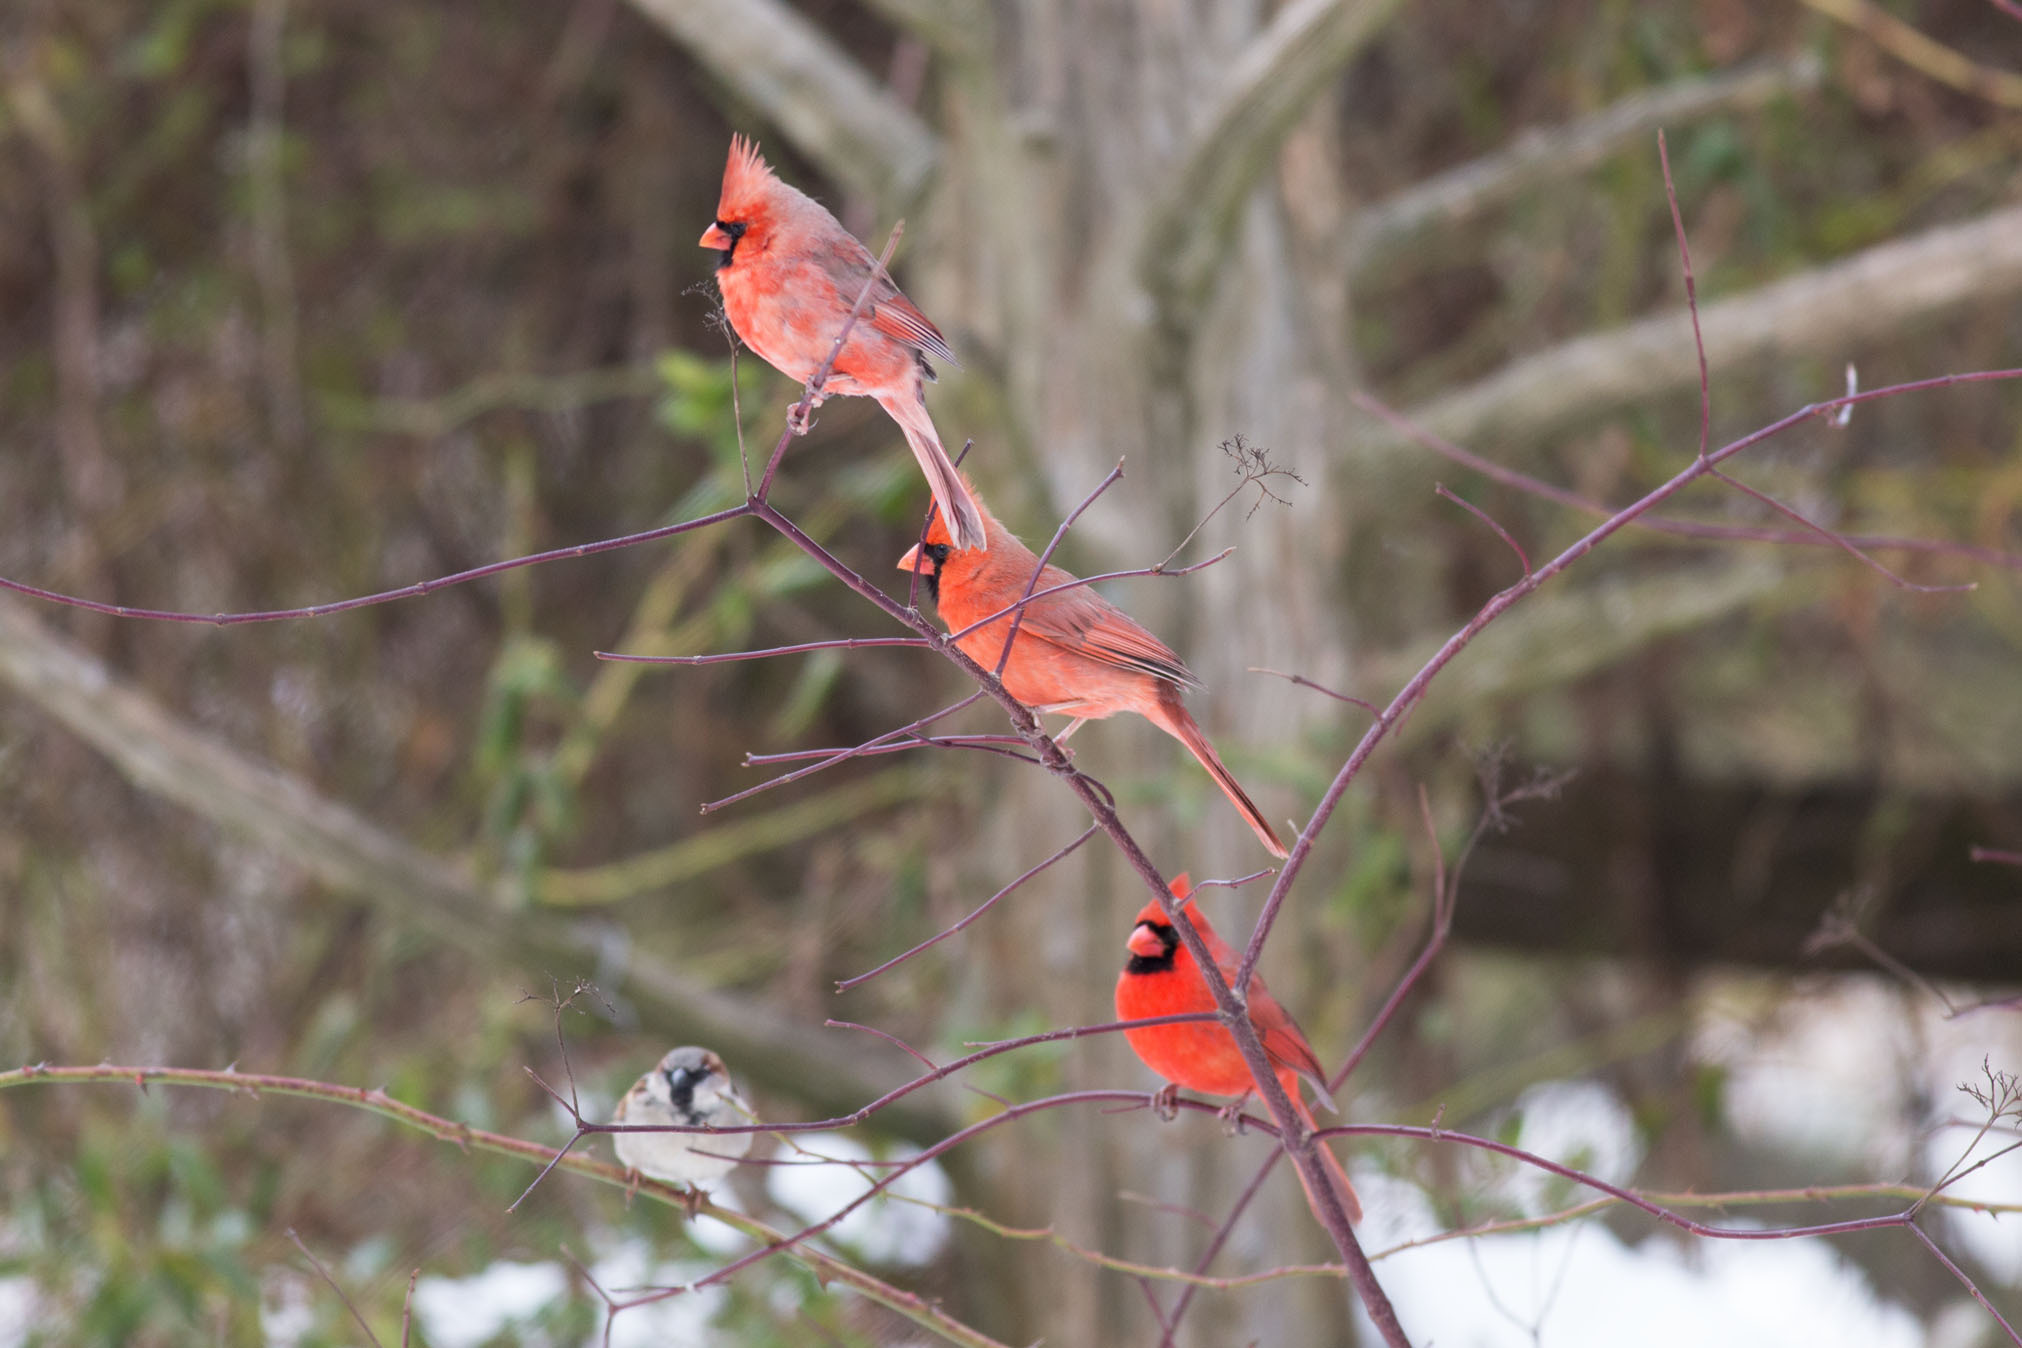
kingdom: Animalia
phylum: Chordata
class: Aves
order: Passeriformes
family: Cardinalidae
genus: Cardinalis
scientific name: Cardinalis cardinalis
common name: Northern cardinal
